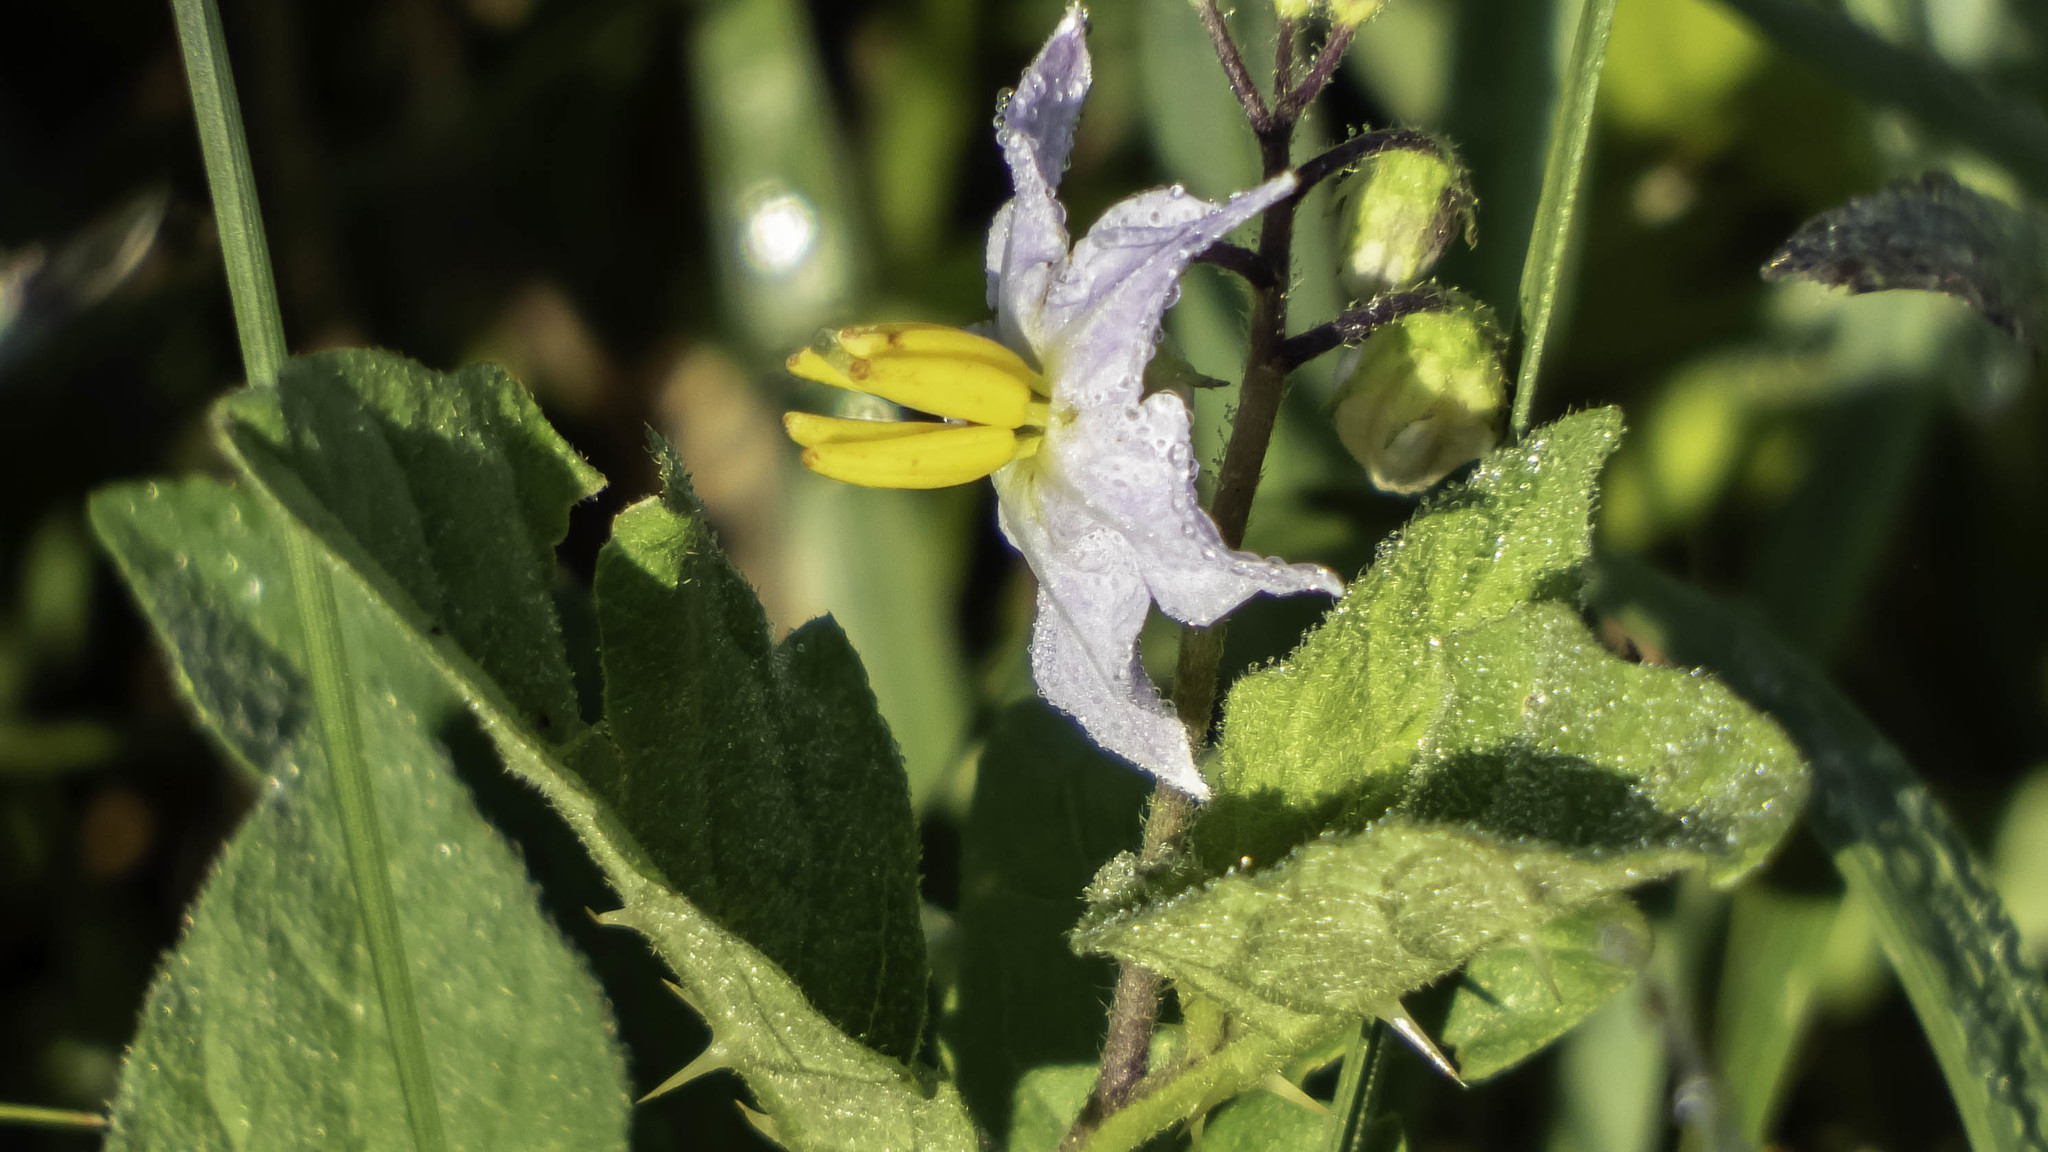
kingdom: Plantae
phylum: Tracheophyta
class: Magnoliopsida
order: Solanales
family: Solanaceae
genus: Solanum
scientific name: Solanum carolinense
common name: Horse-nettle
